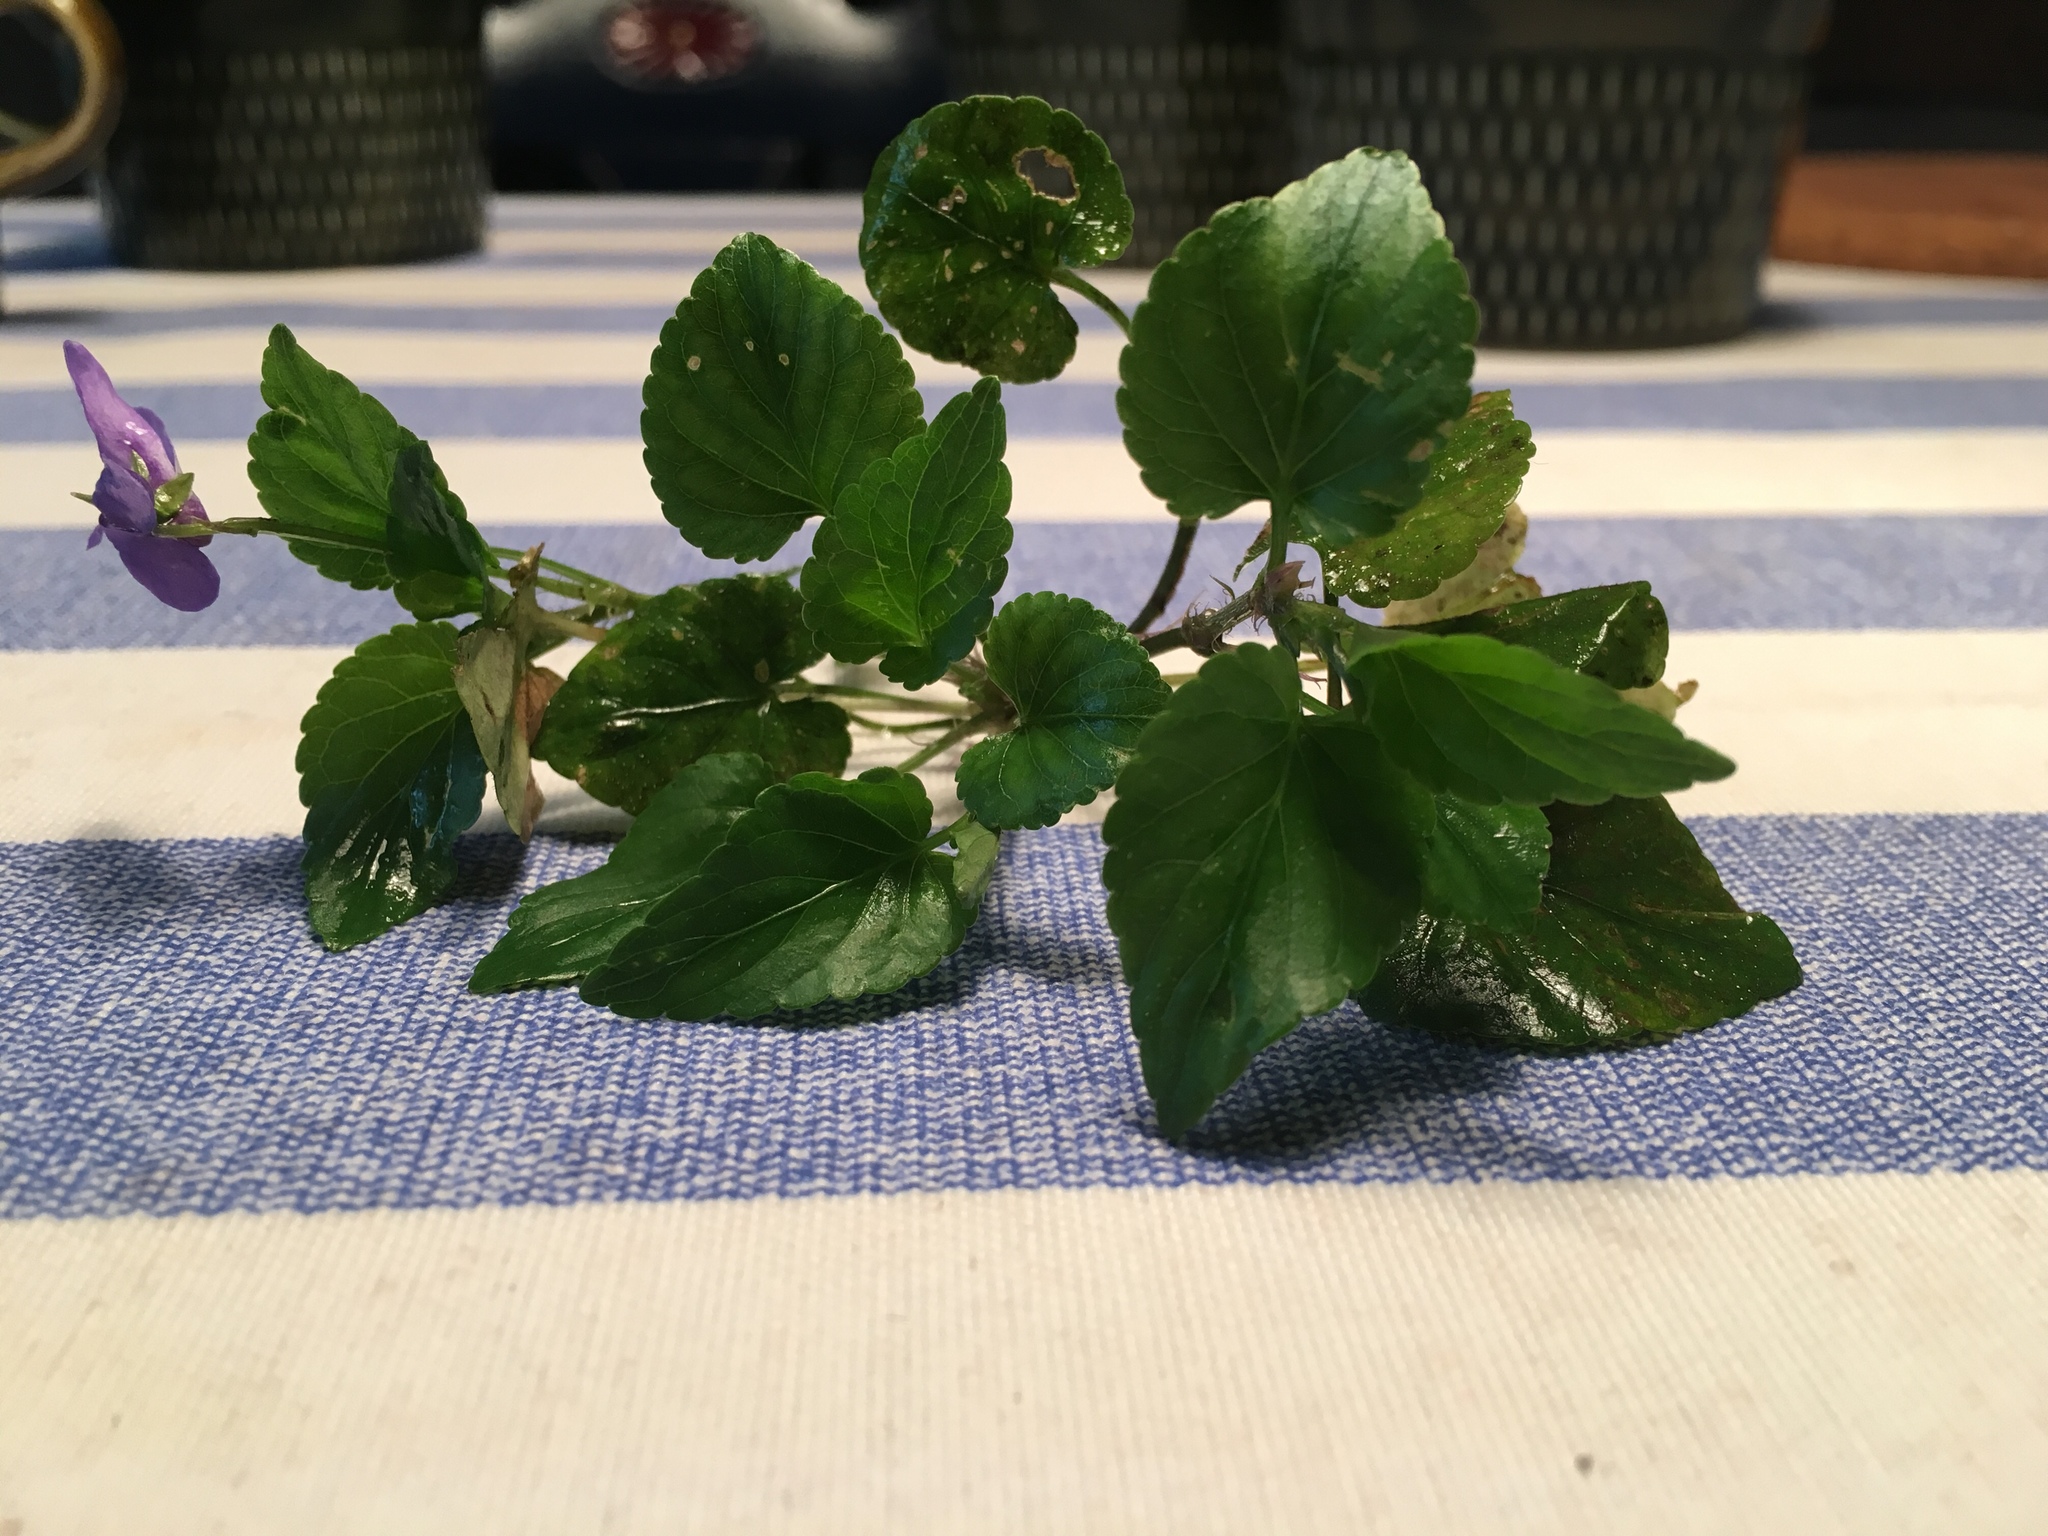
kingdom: Plantae
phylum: Tracheophyta
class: Magnoliopsida
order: Malpighiales
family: Violaceae
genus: Viola
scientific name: Viola reichenbachiana
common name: Early dog-violet
